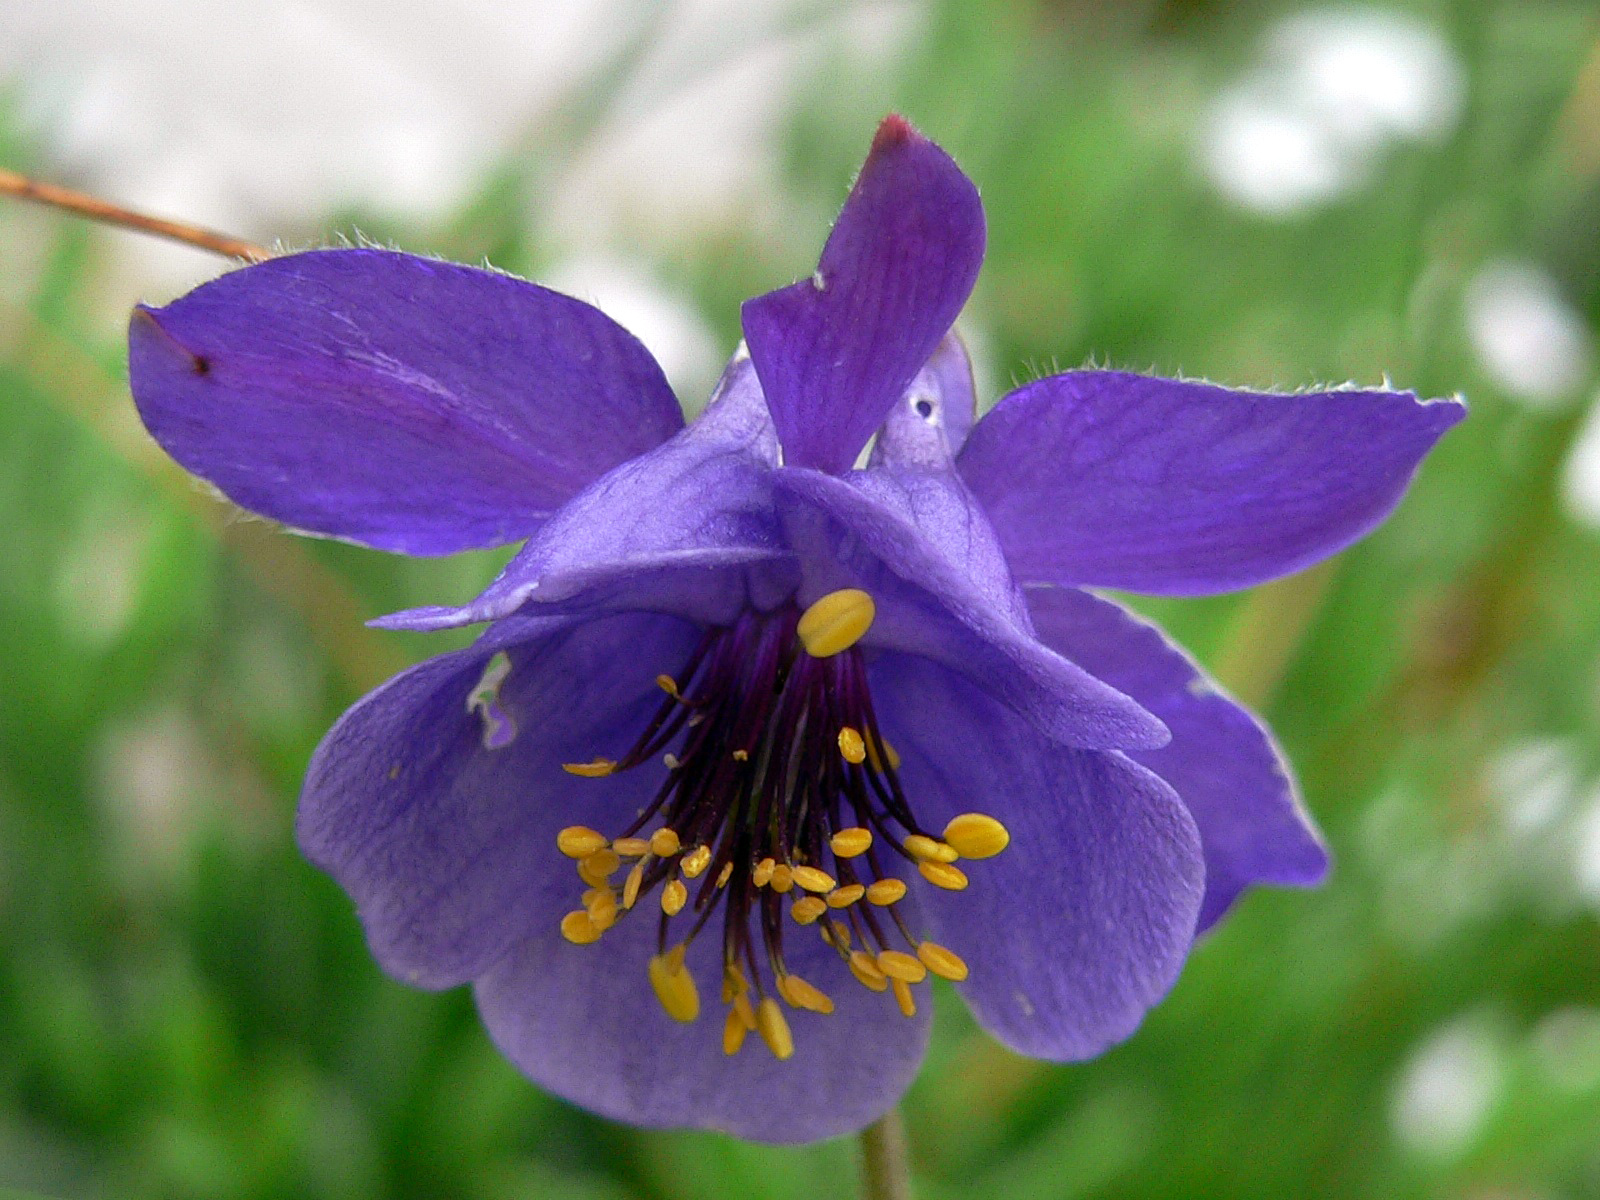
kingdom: Plantae
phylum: Tracheophyta
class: Magnoliopsida
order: Ranunculales
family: Ranunculaceae
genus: Aquilegia
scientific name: Aquilegia einseleana
